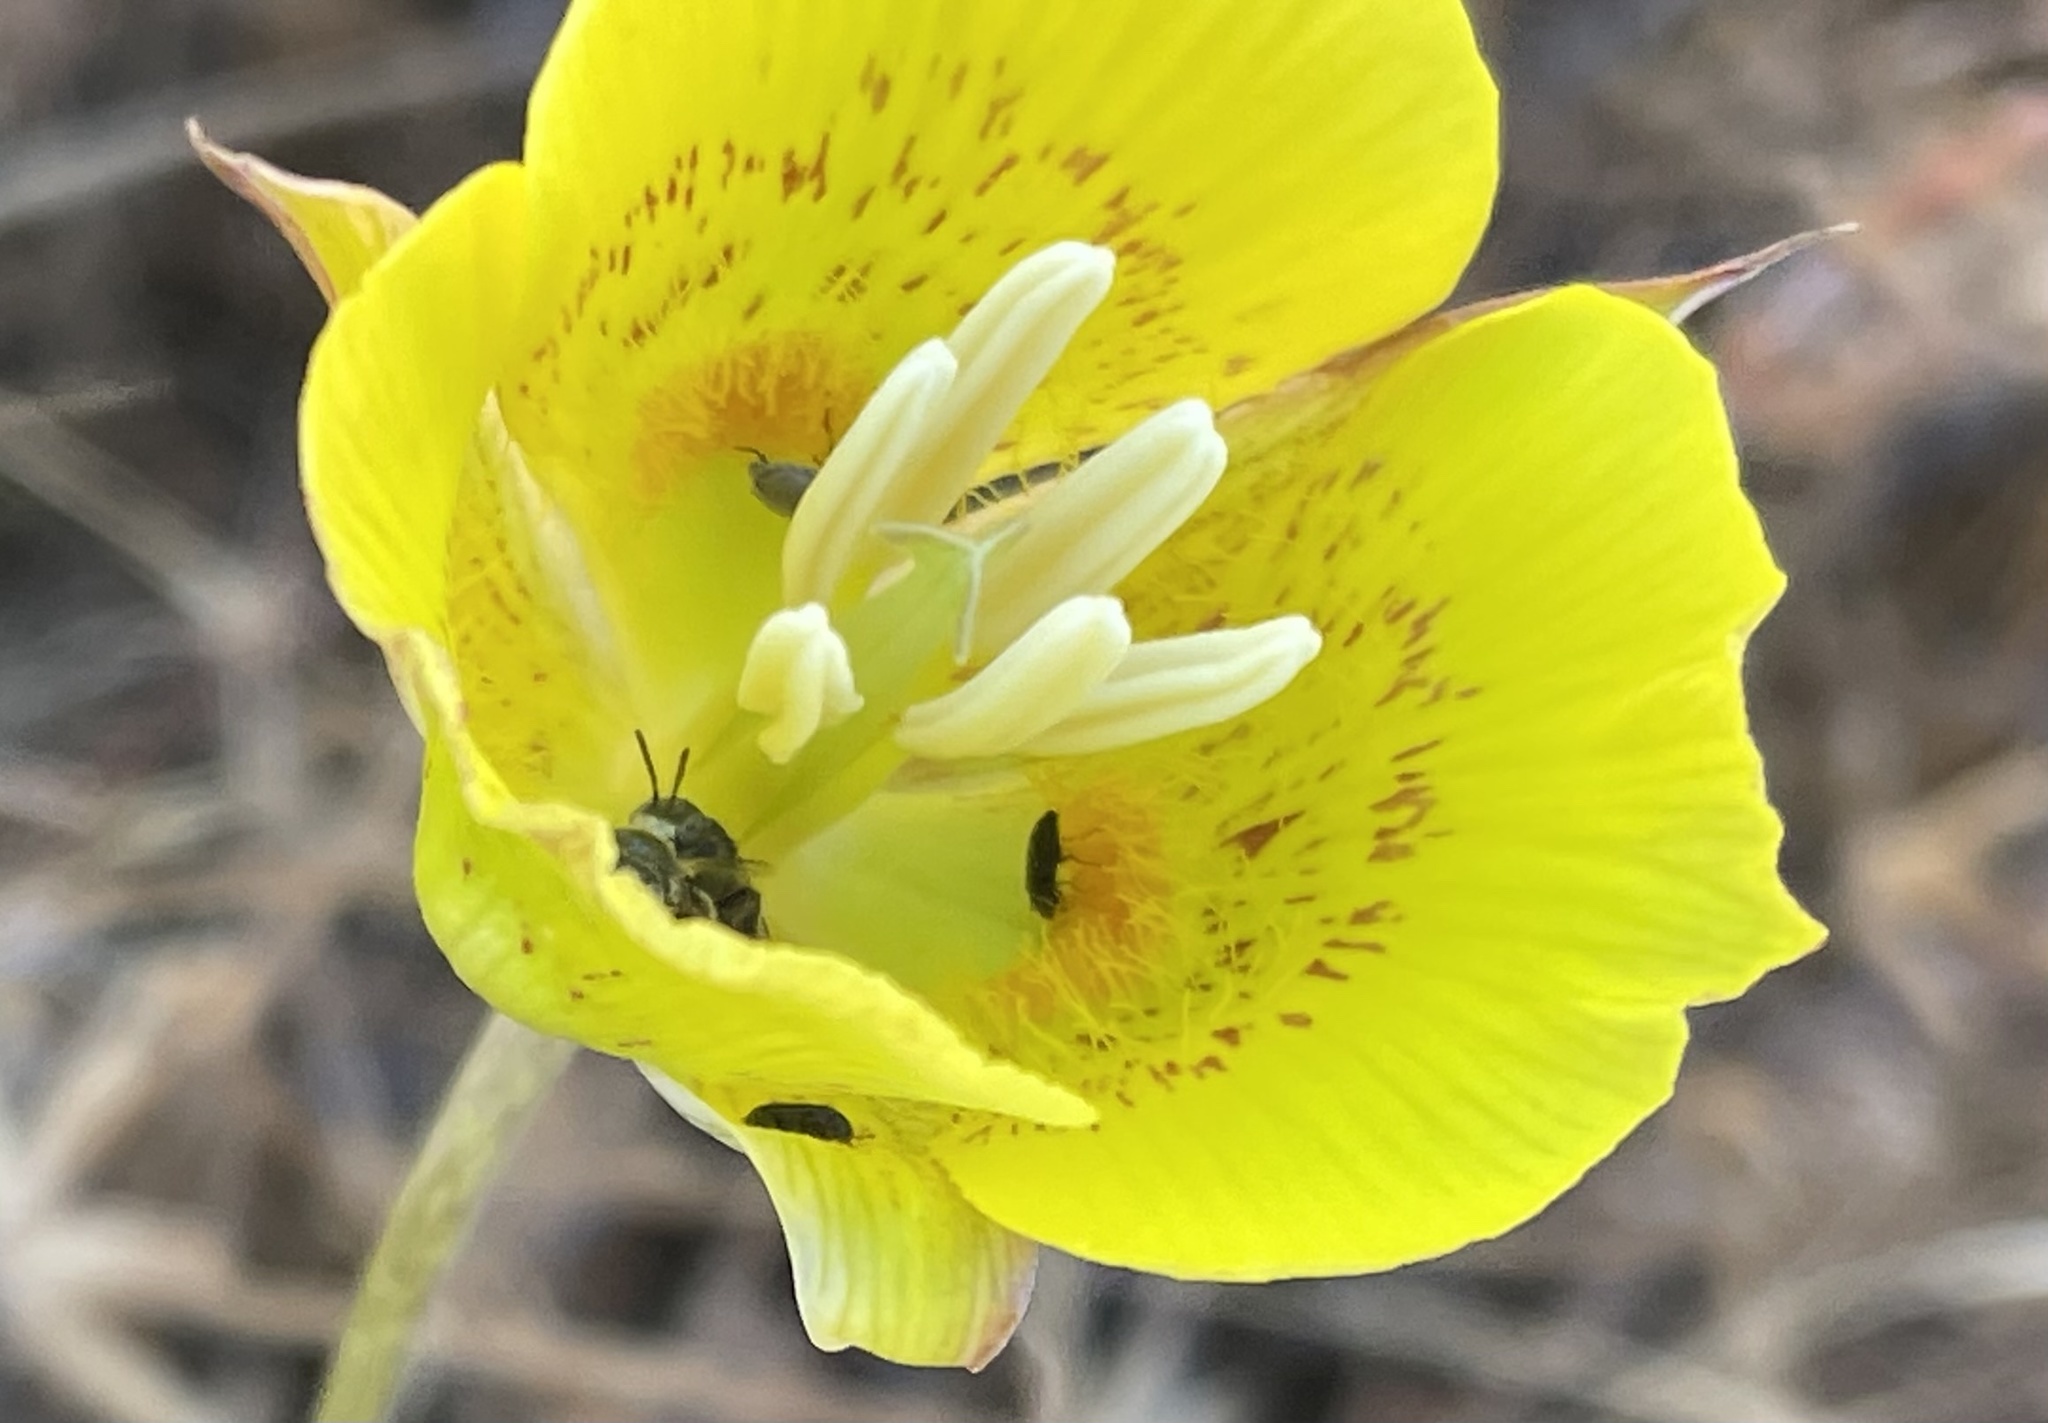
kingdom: Plantae
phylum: Tracheophyta
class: Liliopsida
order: Liliales
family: Liliaceae
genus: Calochortus
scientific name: Calochortus luteus
